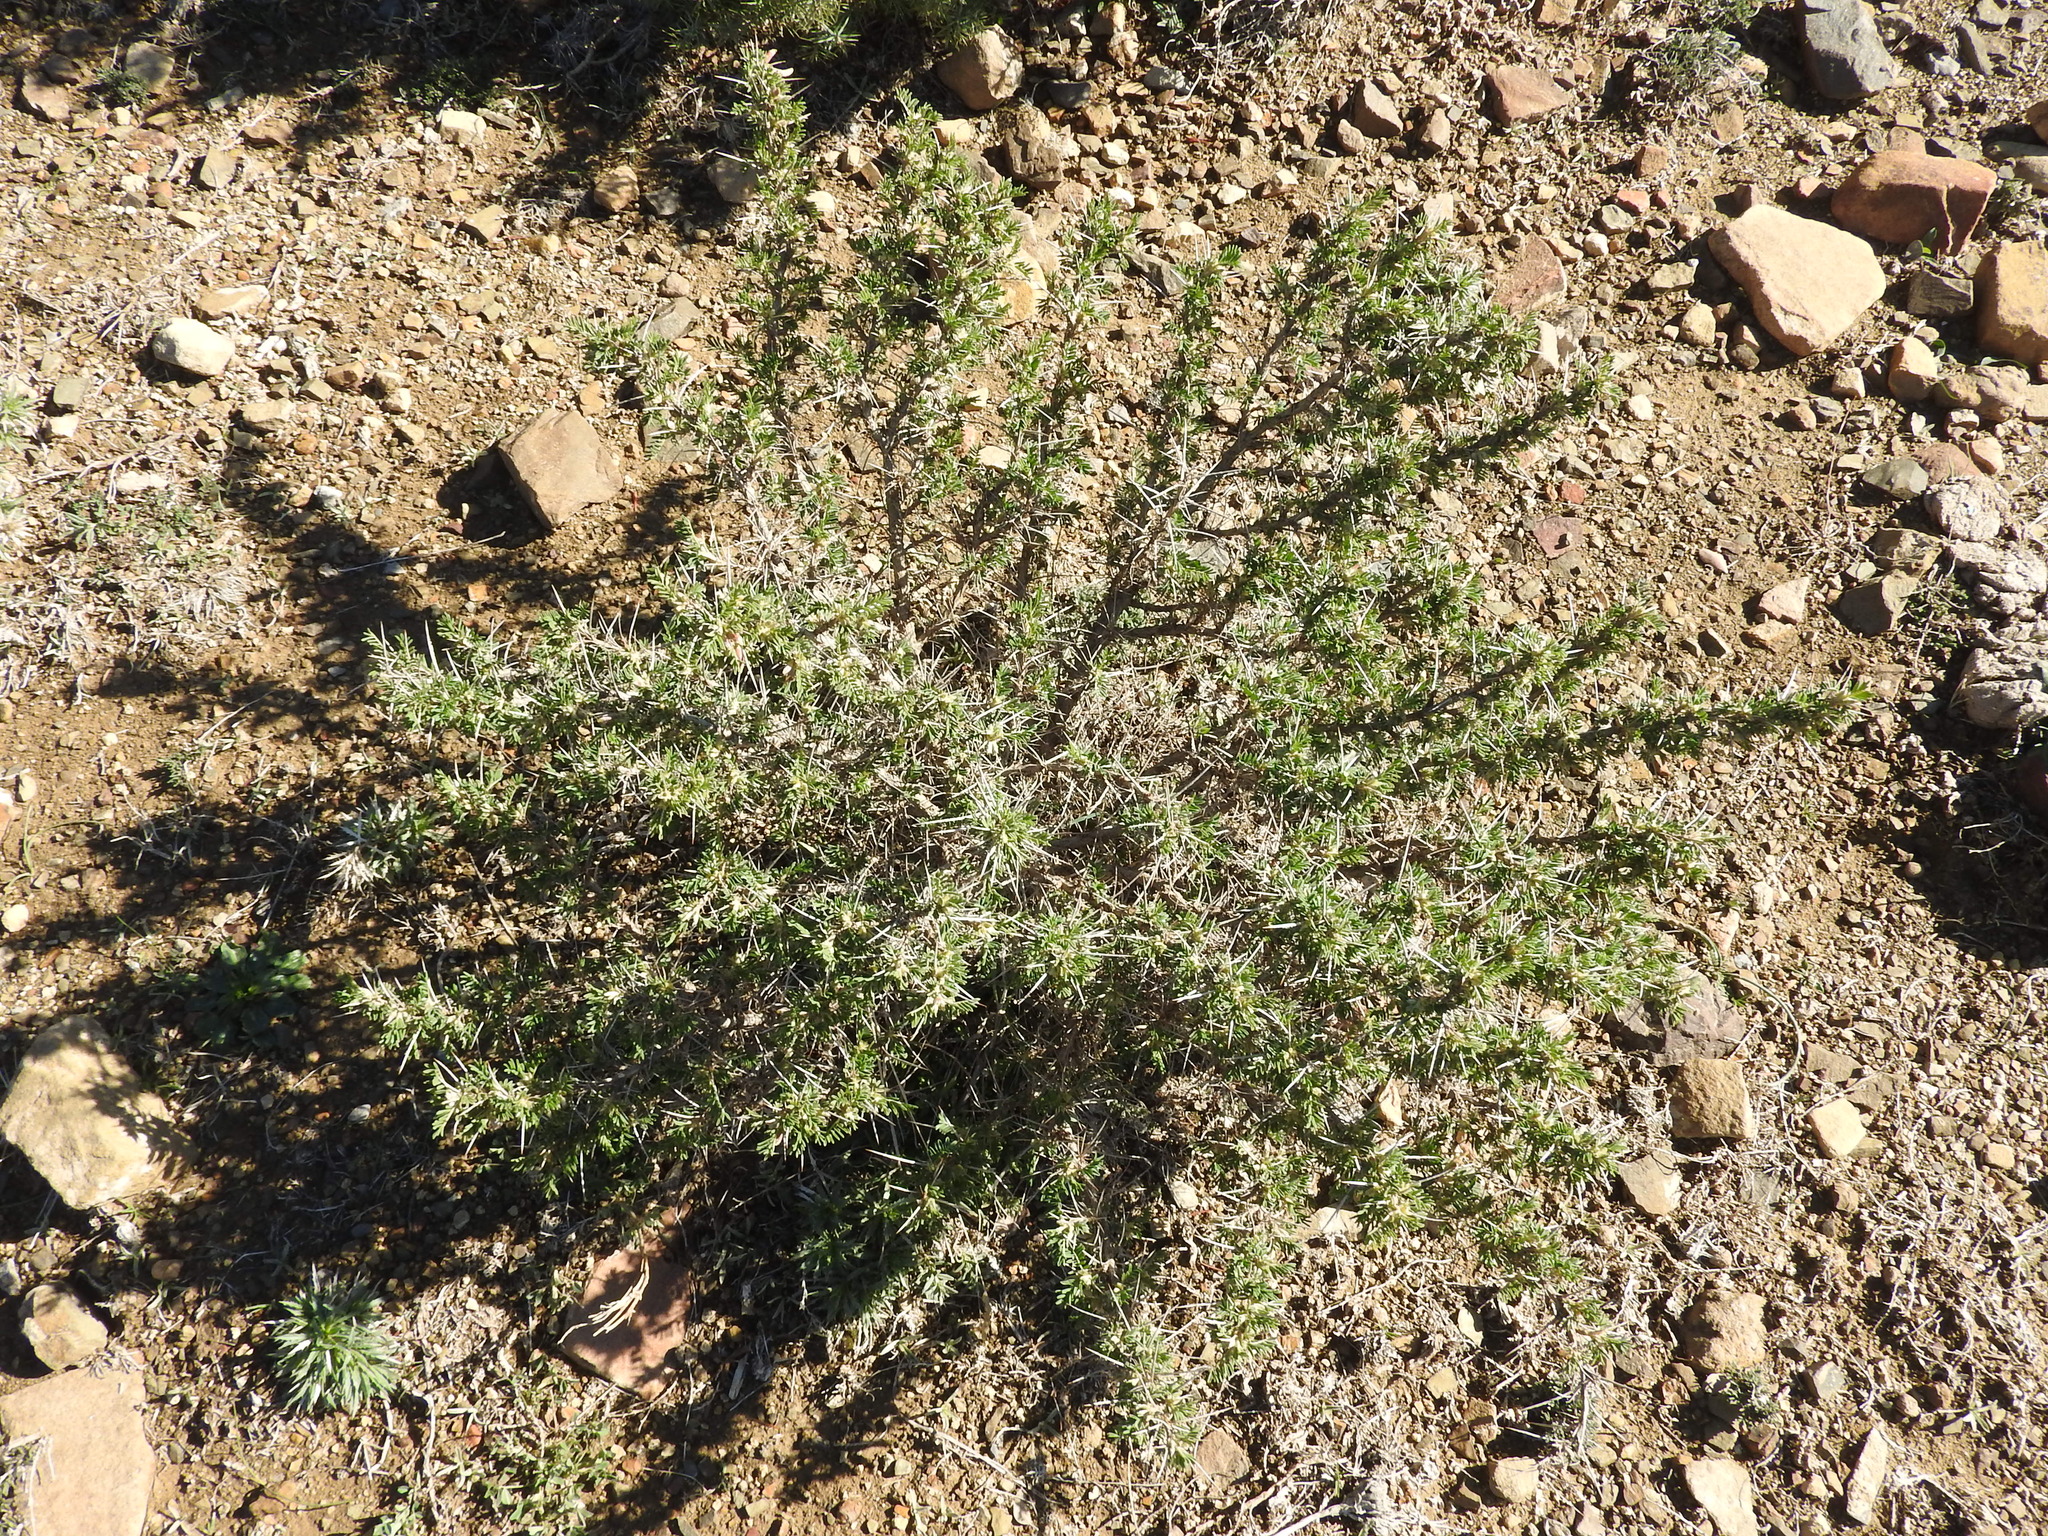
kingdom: Plantae
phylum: Tracheophyta
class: Magnoliopsida
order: Fabales
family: Fabaceae
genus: Astragalus
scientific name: Astragalus armatus
